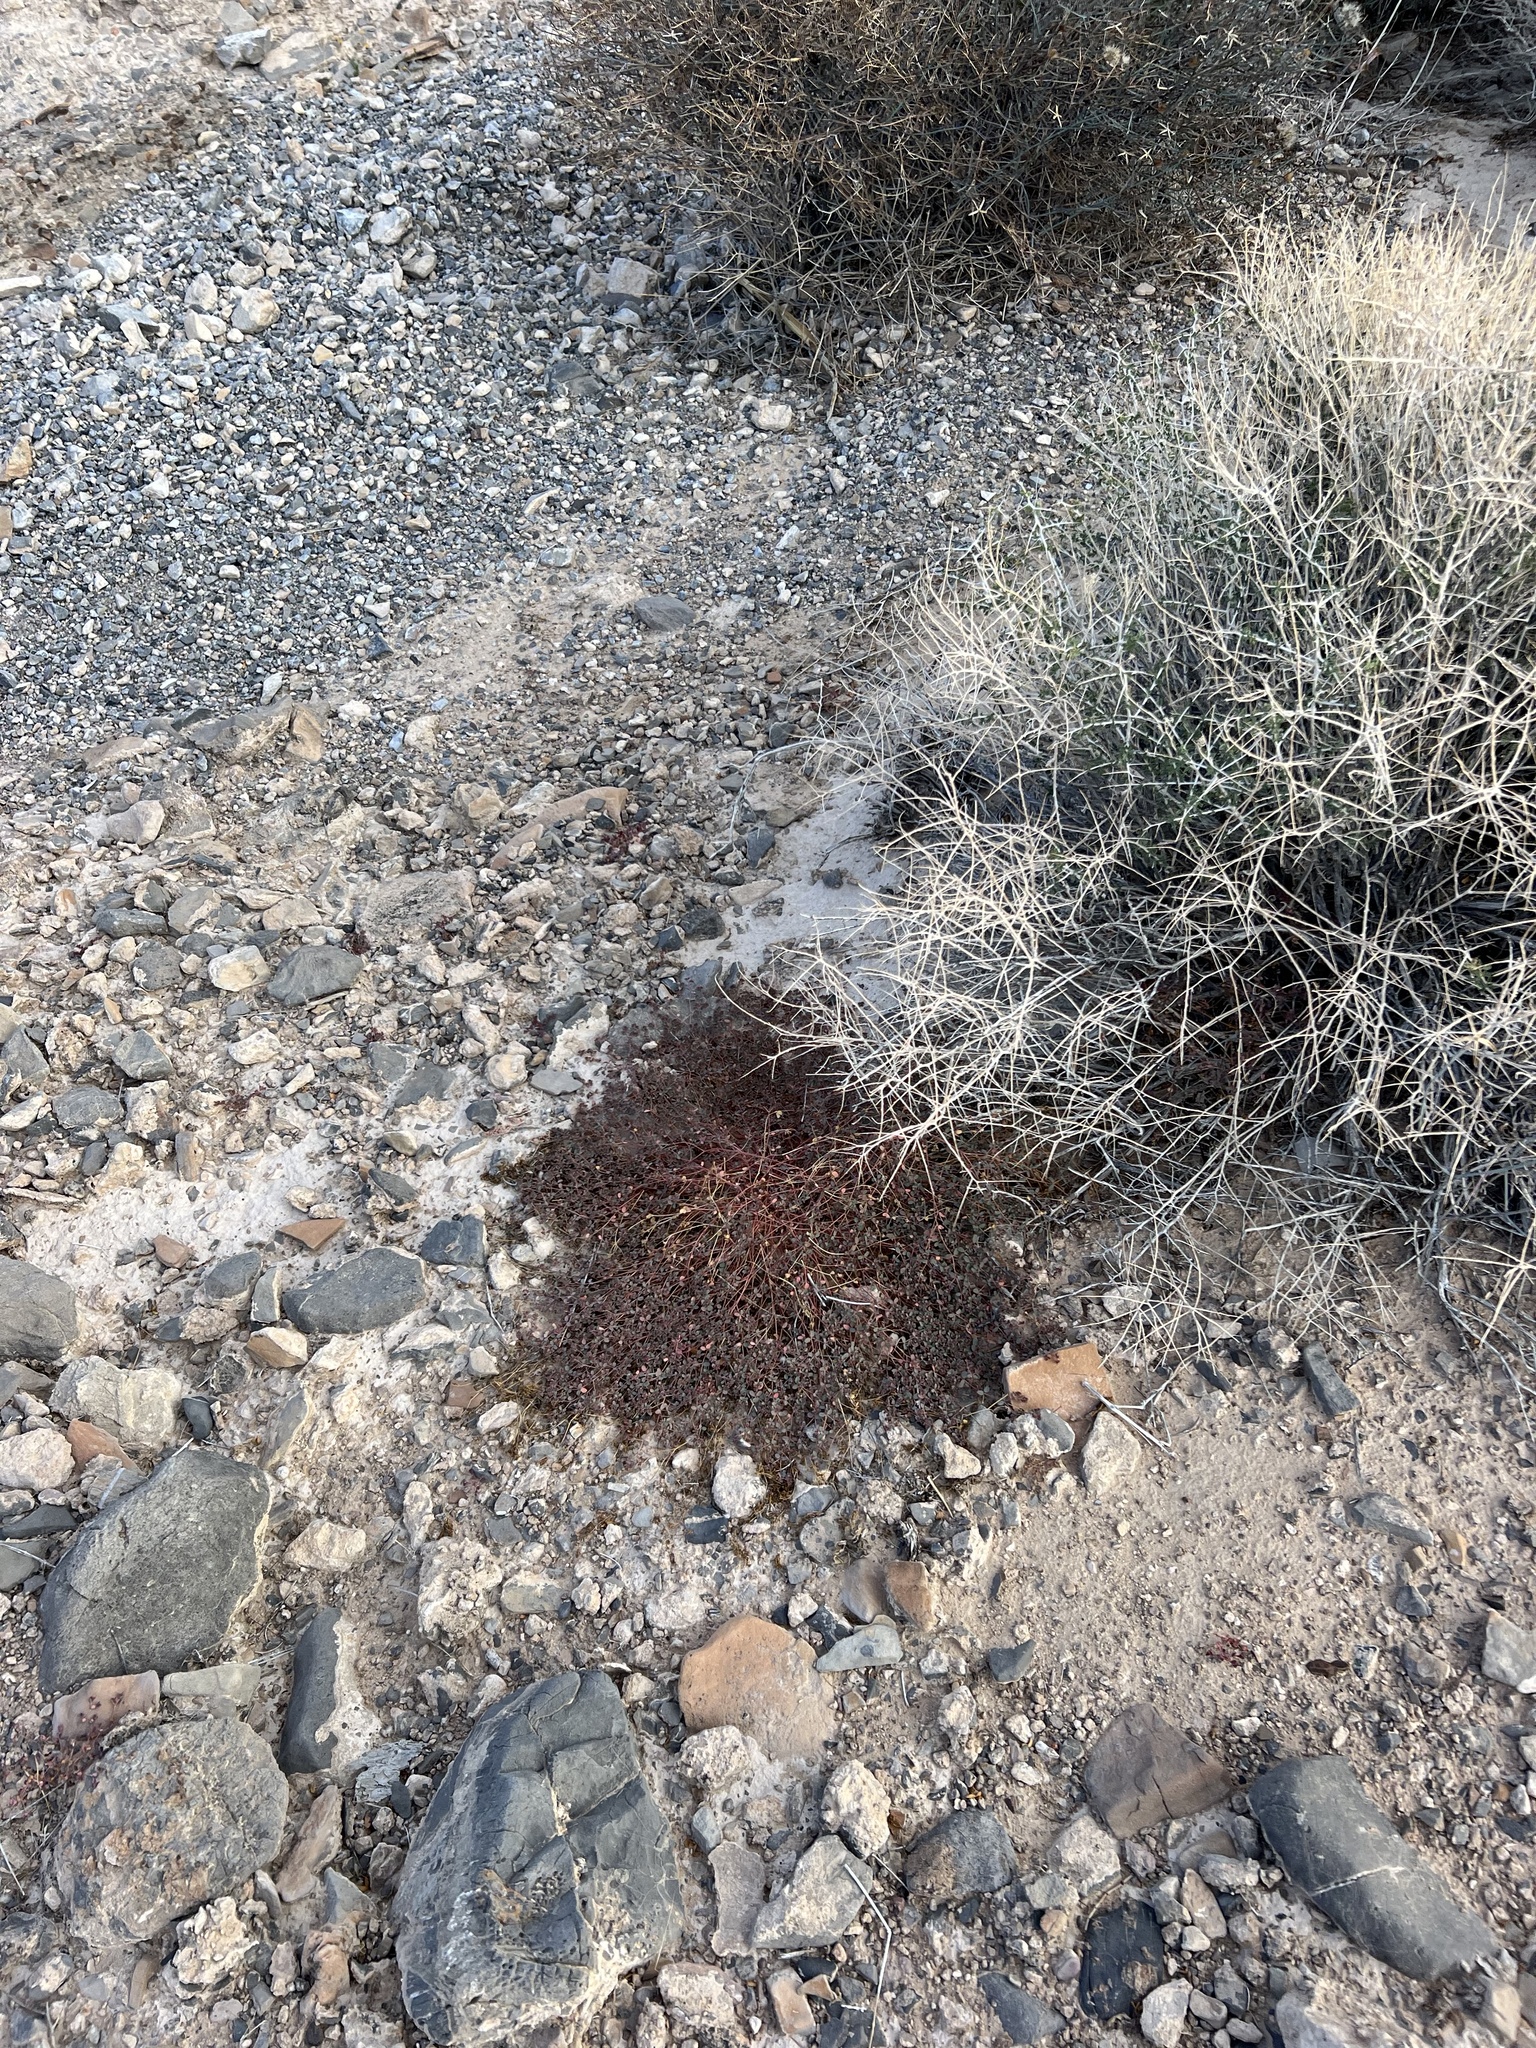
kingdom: Plantae
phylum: Tracheophyta
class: Magnoliopsida
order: Malpighiales
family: Euphorbiaceae
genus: Euphorbia
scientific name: Euphorbia polycarpa
